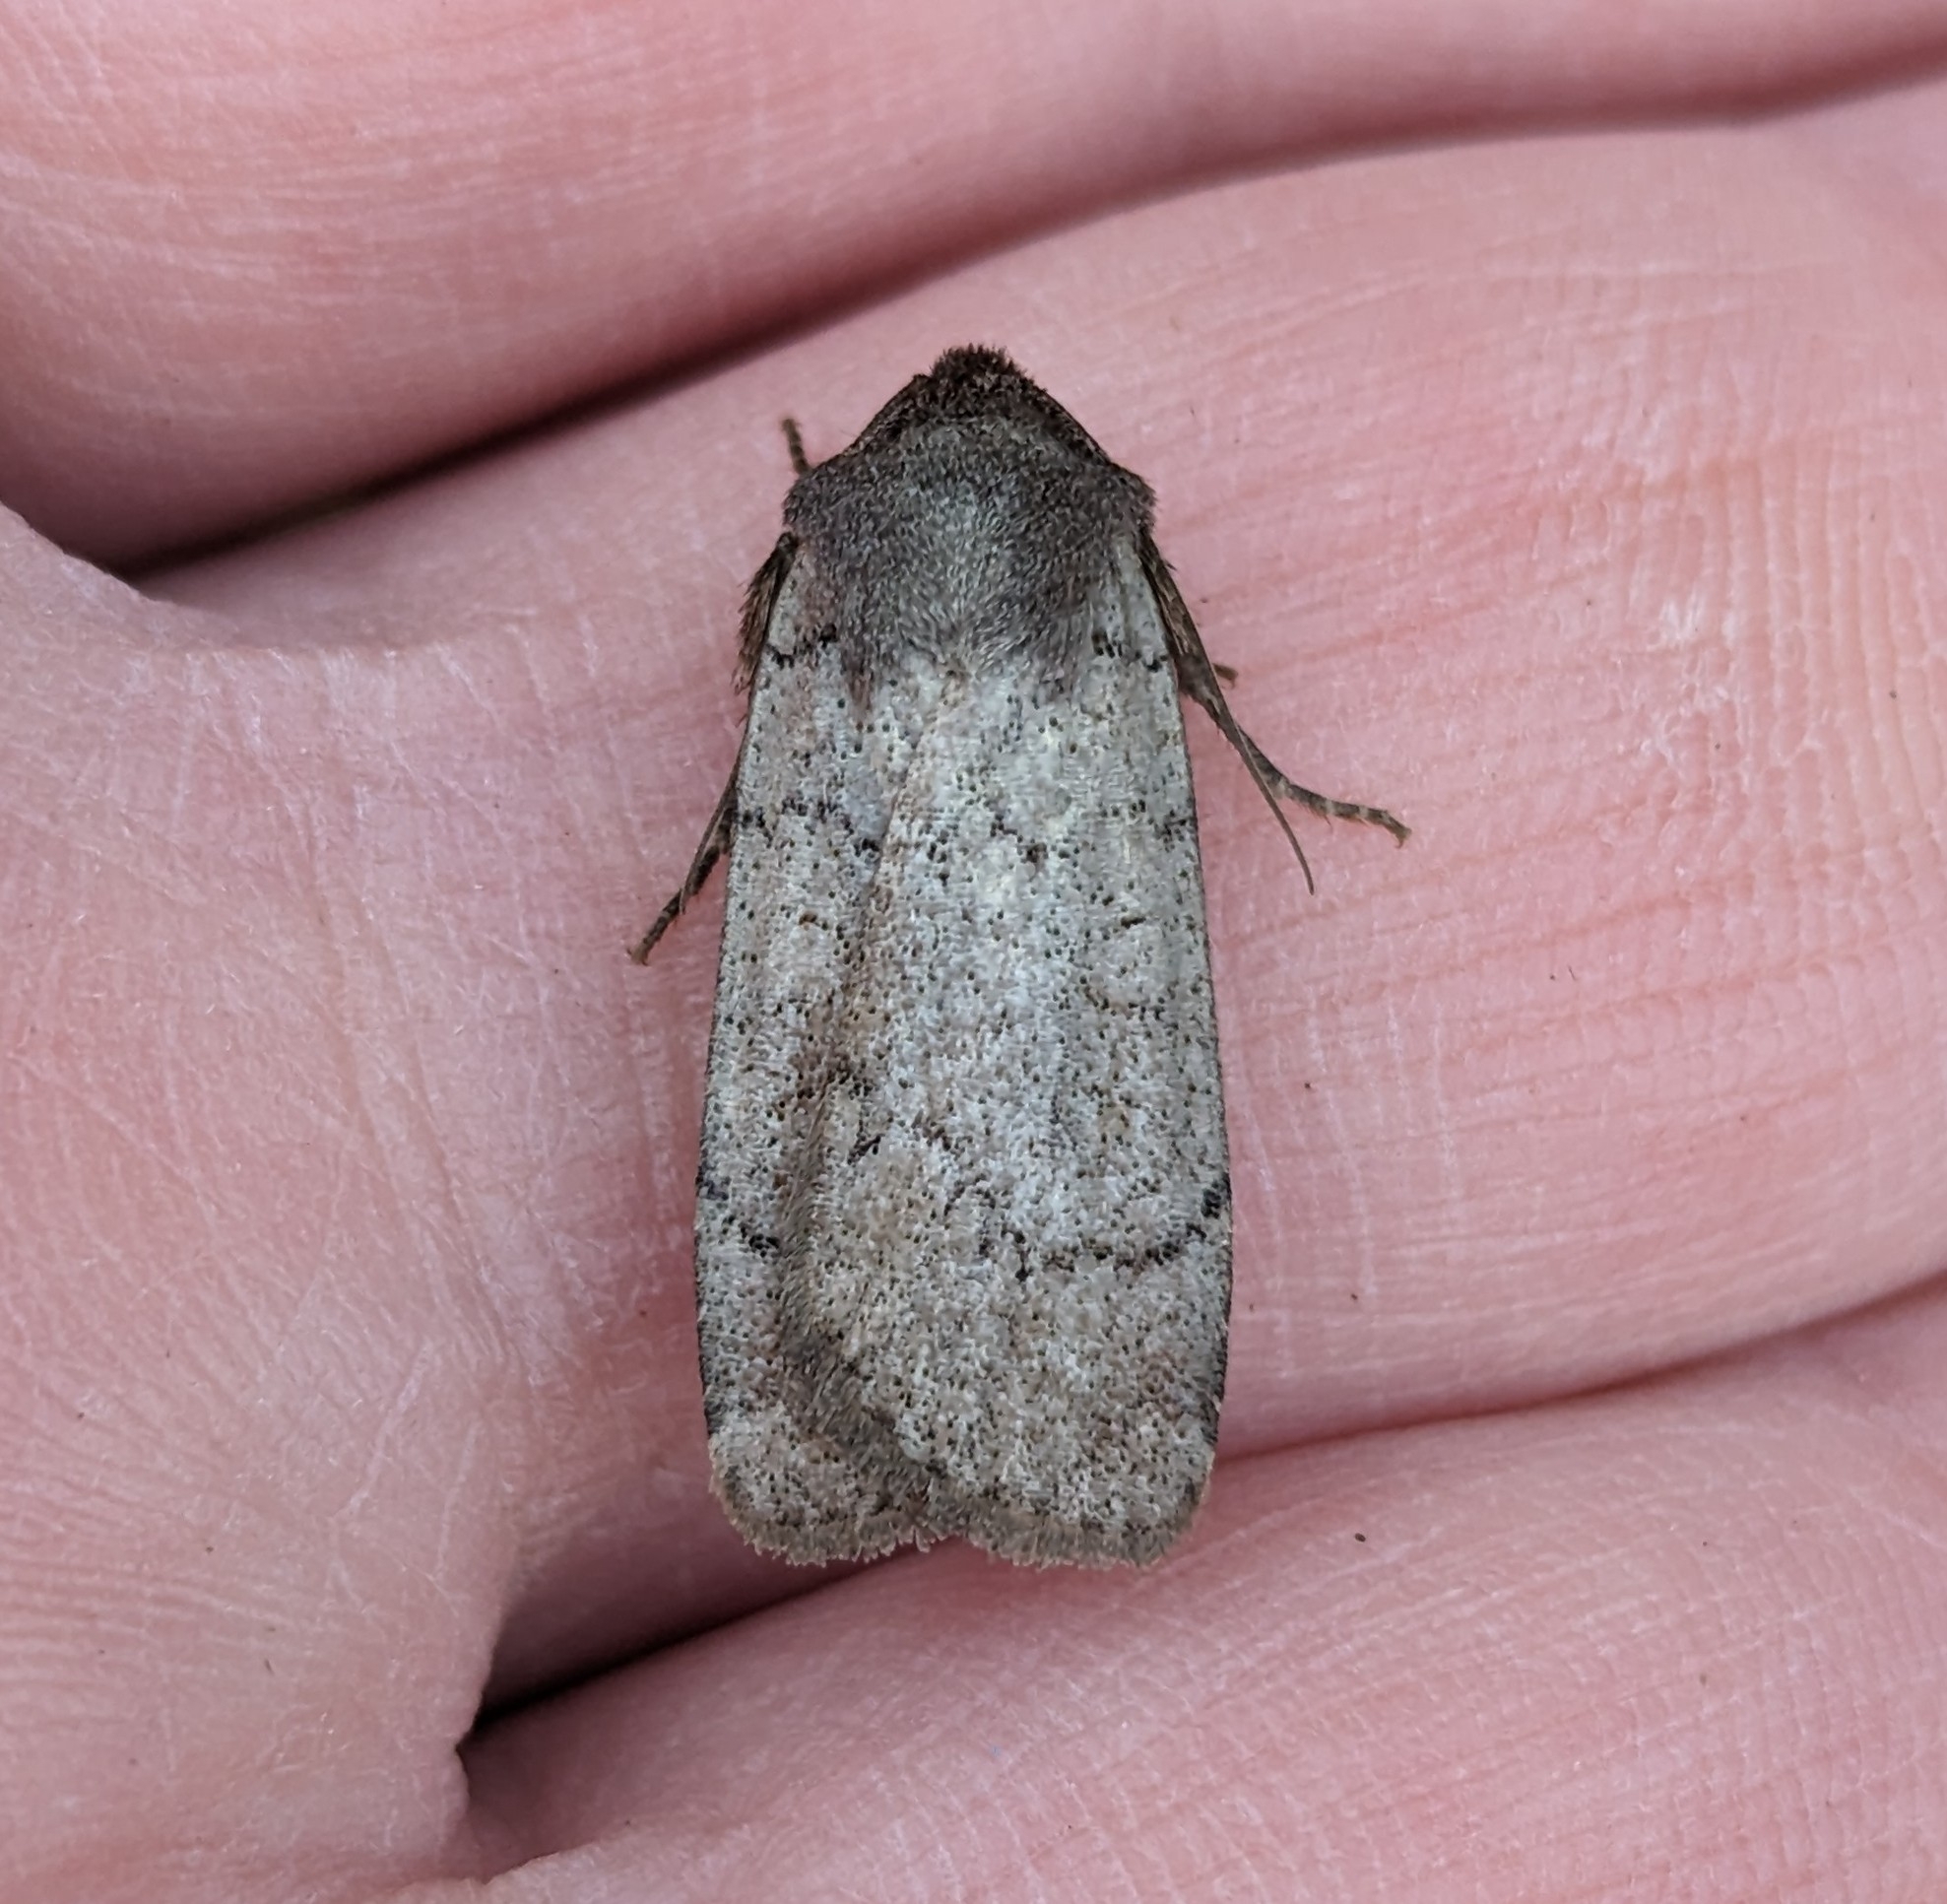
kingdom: Animalia
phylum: Arthropoda
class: Insecta
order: Lepidoptera
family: Noctuidae
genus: Protolampra
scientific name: Protolampra rufipectus
